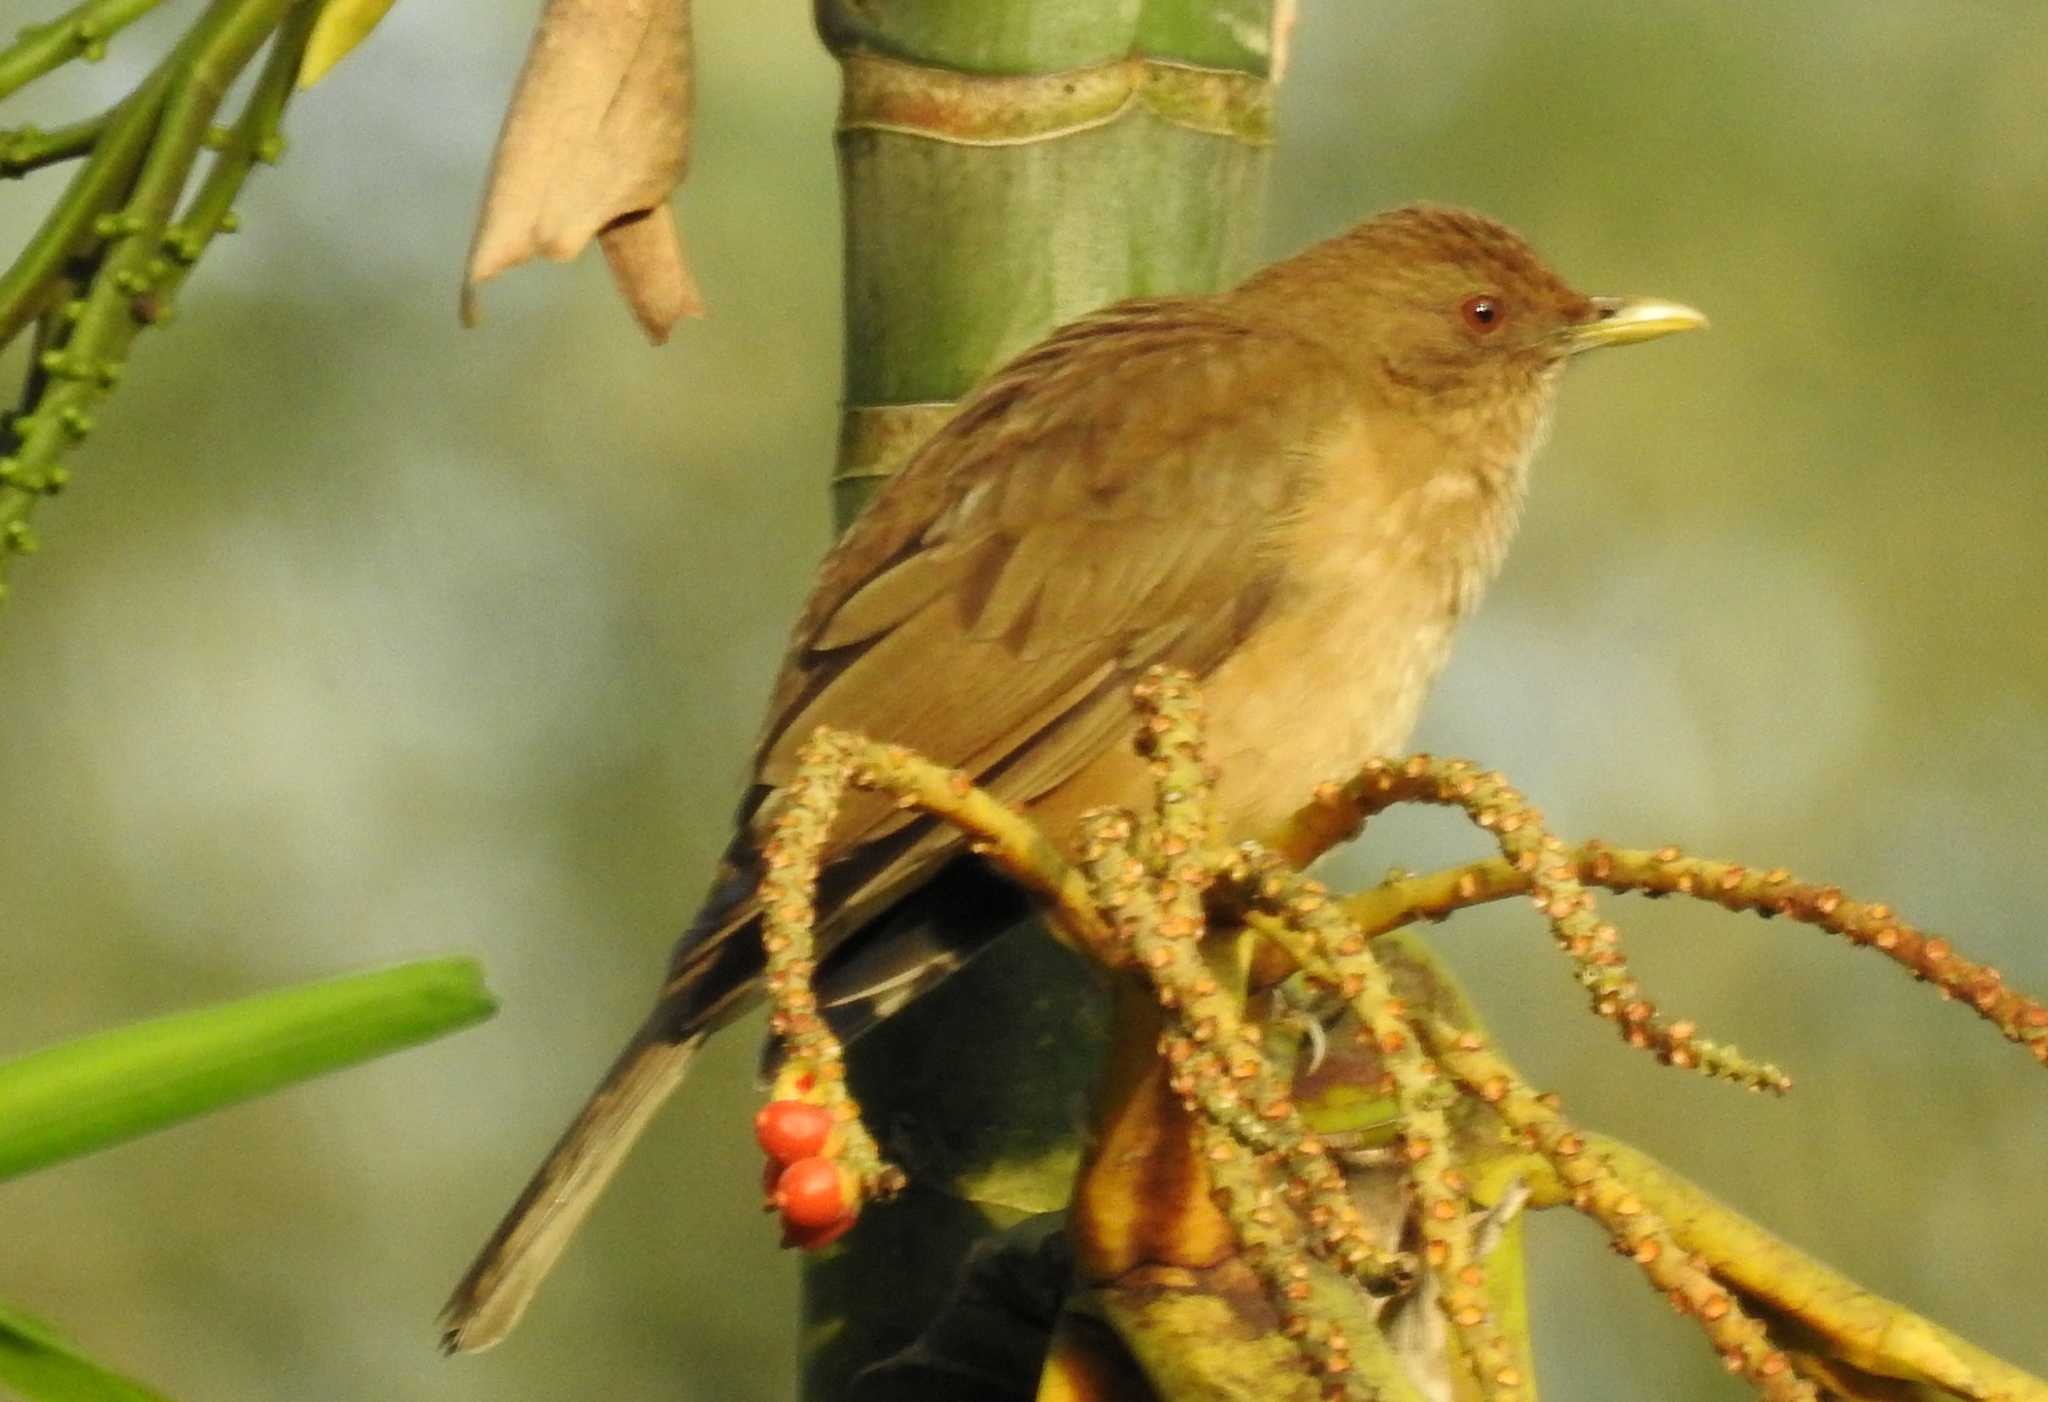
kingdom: Animalia
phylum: Chordata
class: Aves
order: Passeriformes
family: Turdidae
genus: Turdus
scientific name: Turdus grayi
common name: Clay-colored thrush
